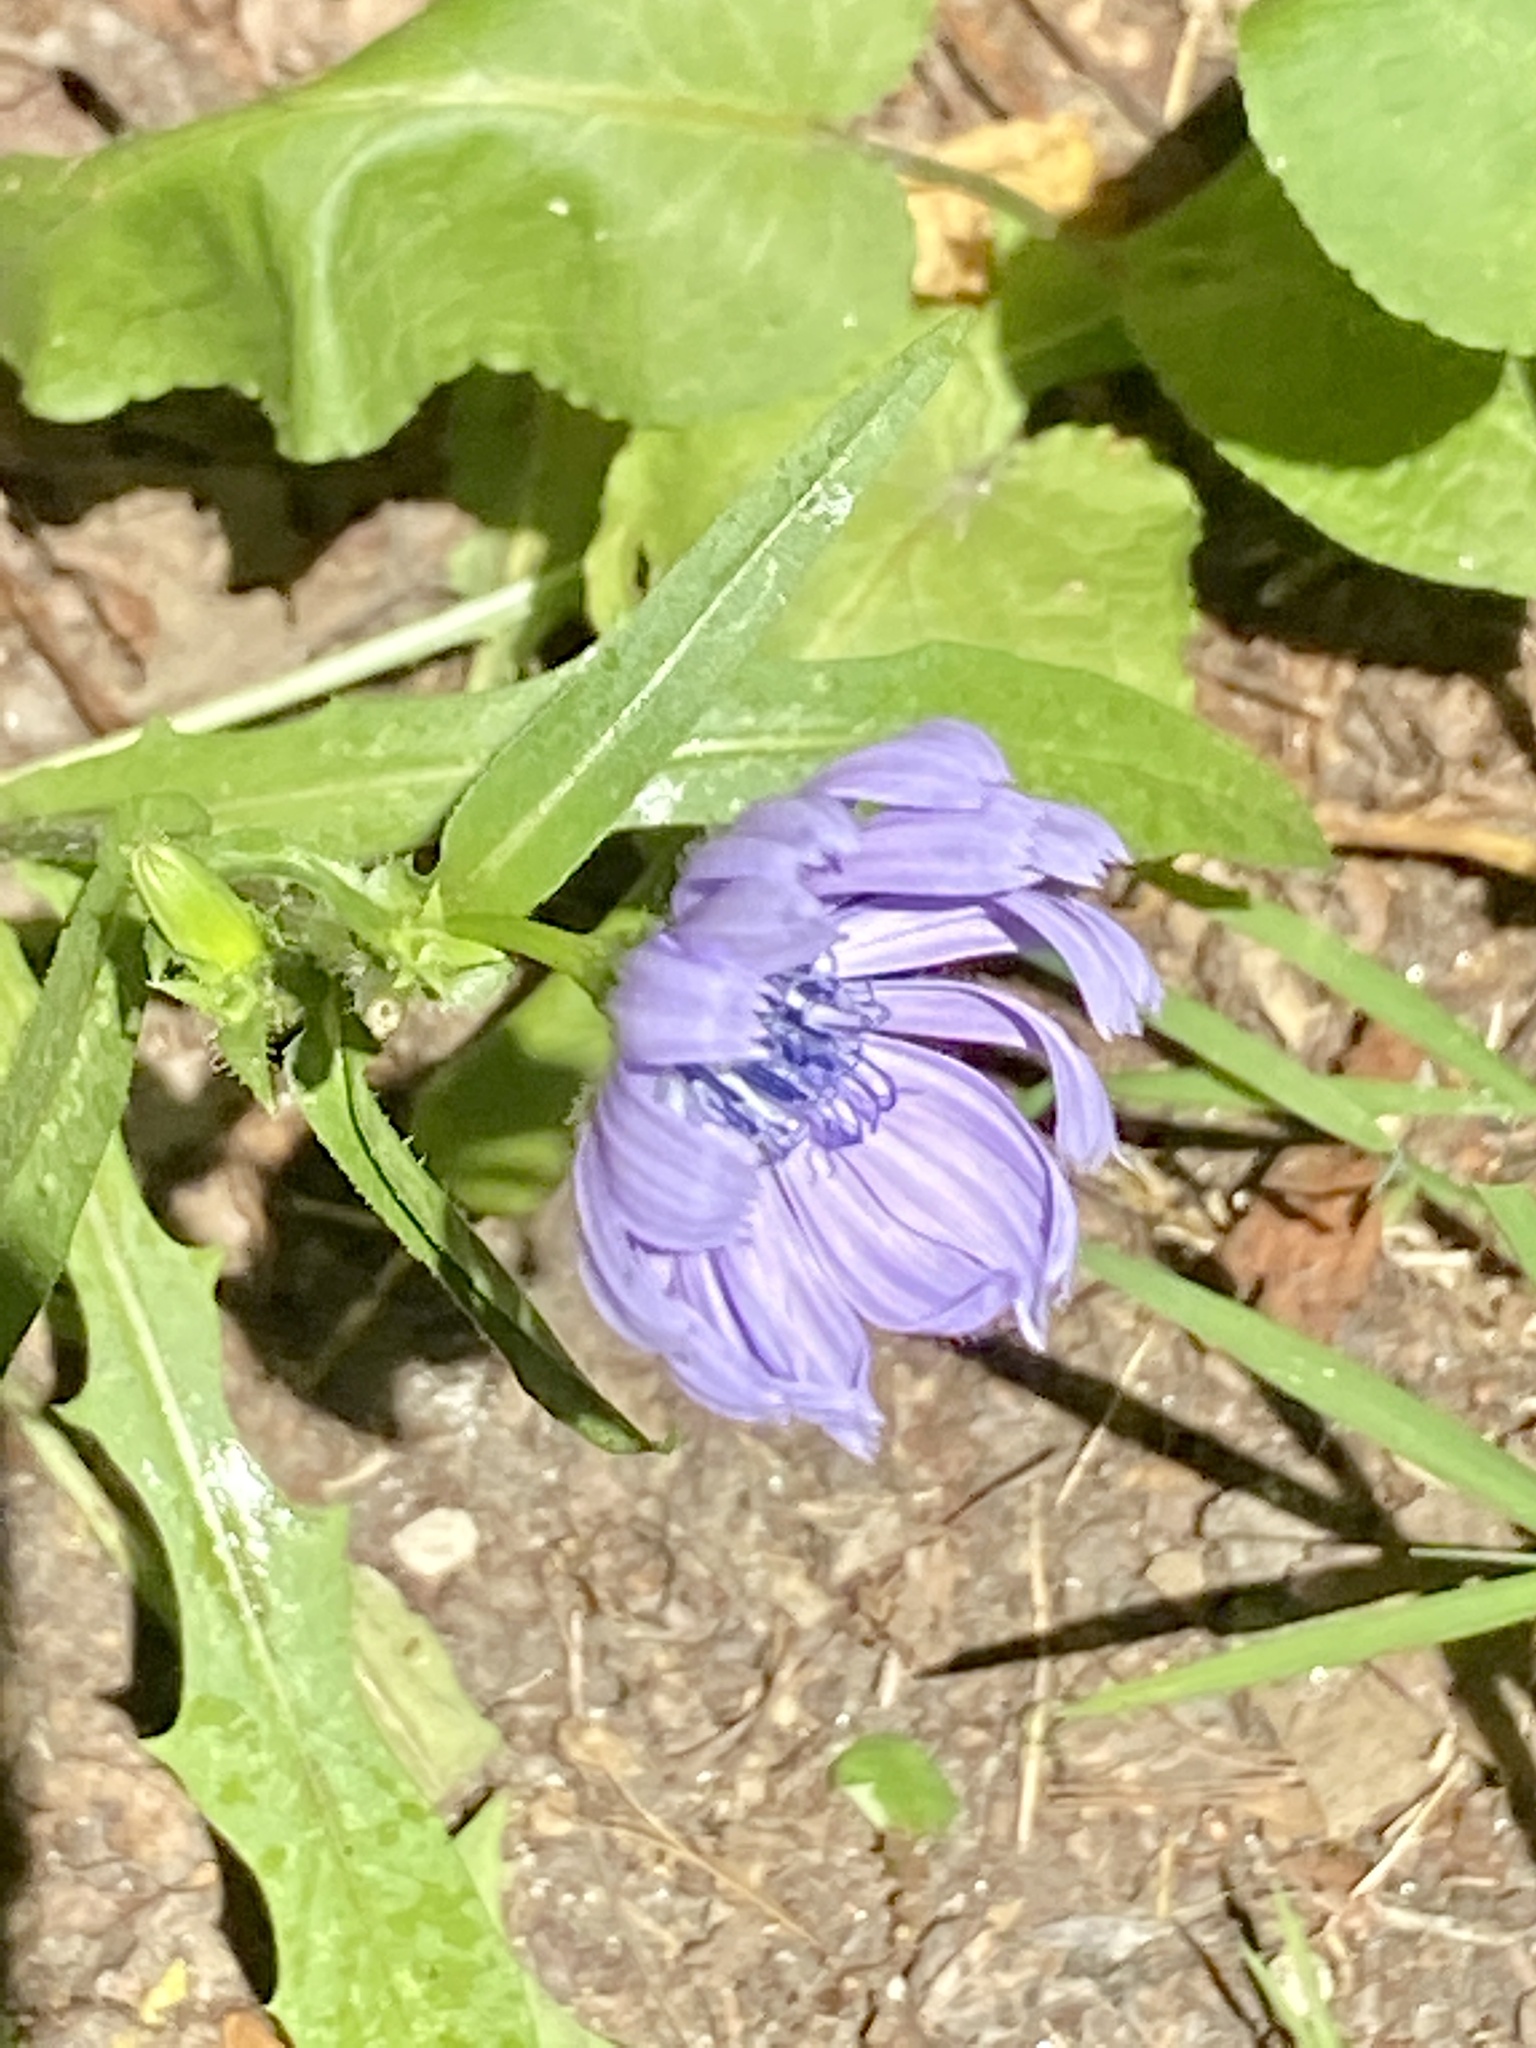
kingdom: Plantae
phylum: Tracheophyta
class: Magnoliopsida
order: Asterales
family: Asteraceae
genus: Cichorium
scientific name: Cichorium intybus
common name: Chicory
